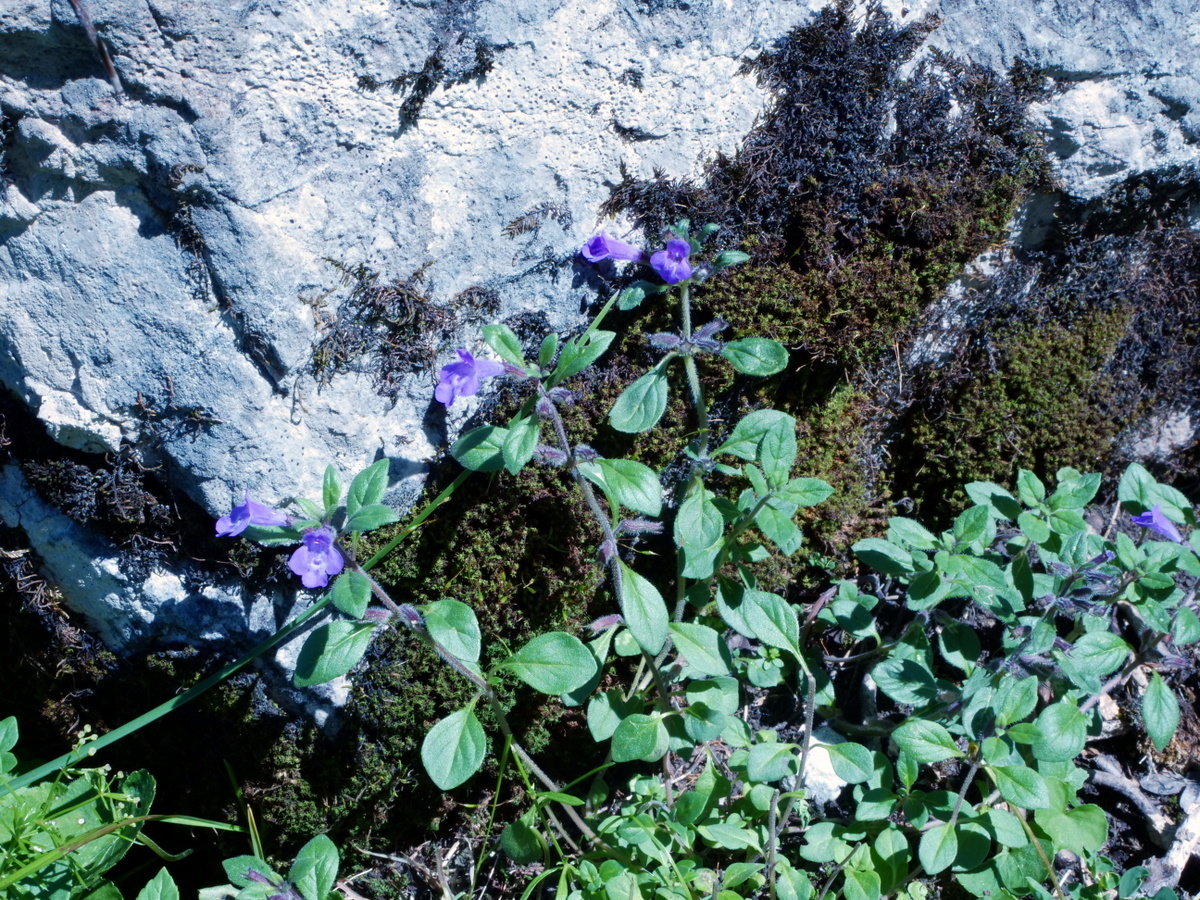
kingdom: Plantae
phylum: Tracheophyta
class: Magnoliopsida
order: Lamiales
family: Lamiaceae
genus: Clinopodium
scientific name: Clinopodium alpinum
